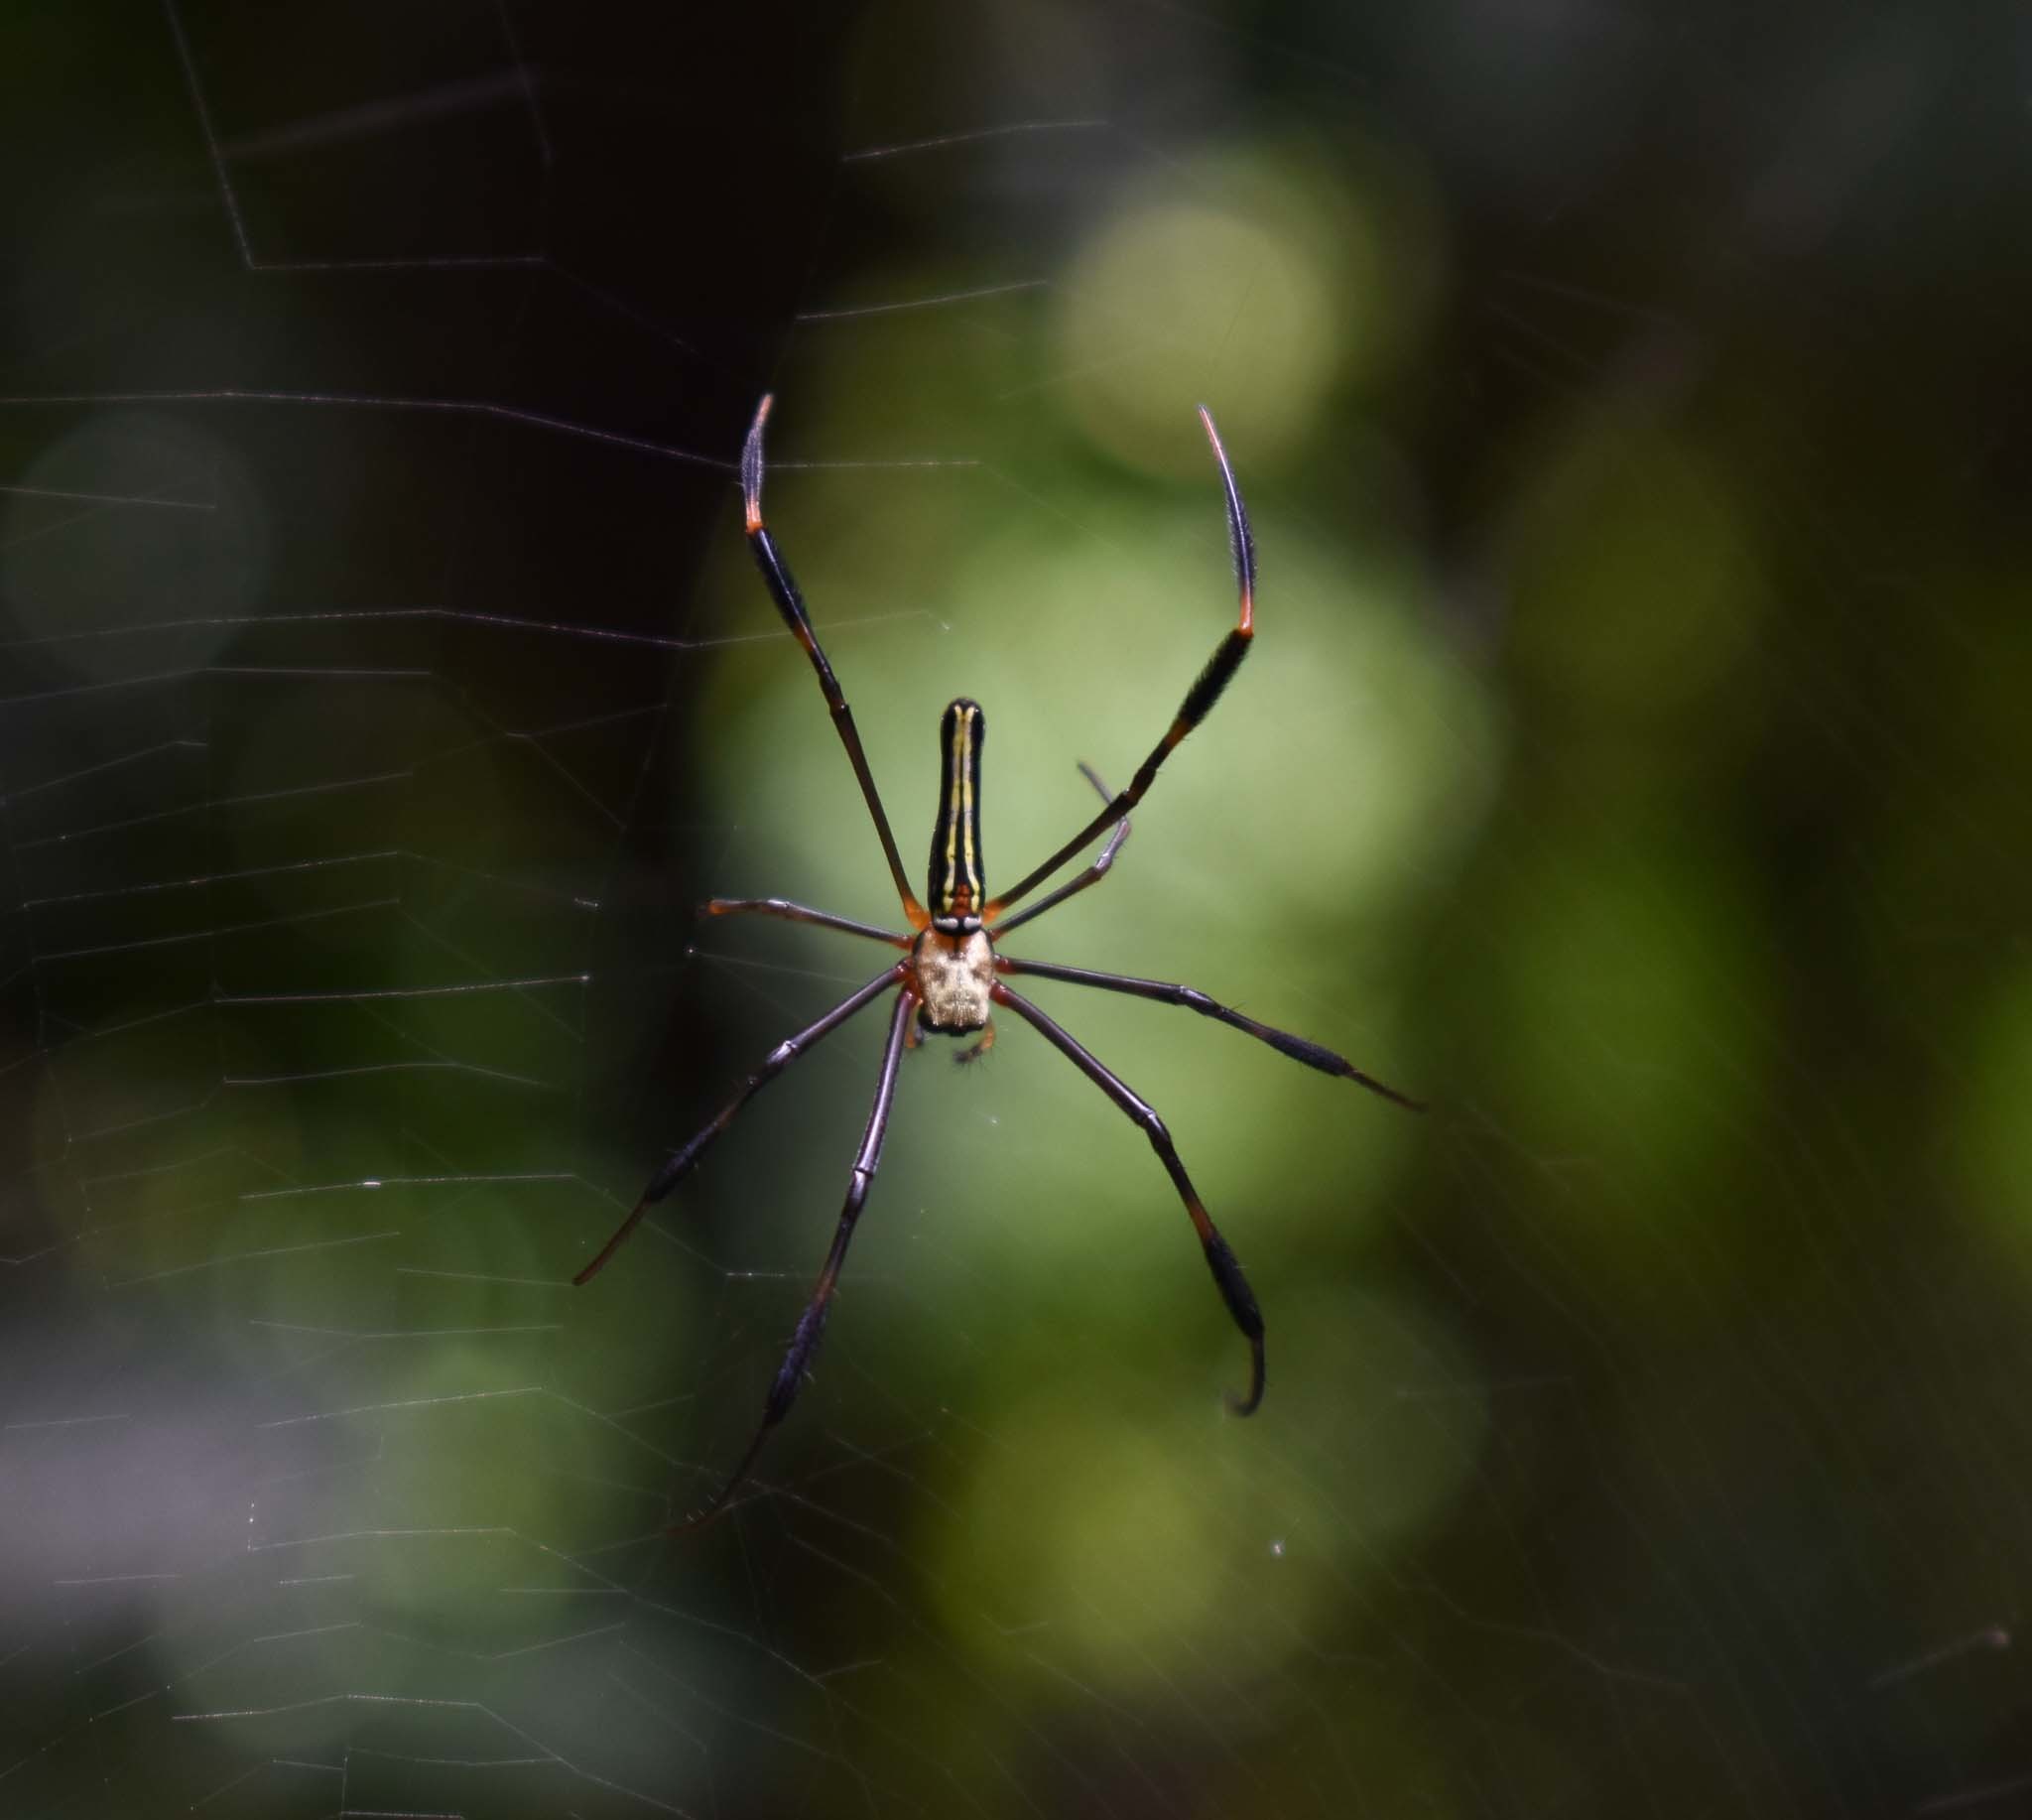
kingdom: Animalia
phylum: Arthropoda
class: Arachnida
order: Araneae
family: Araneidae
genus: Nephila
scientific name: Nephila pilipes
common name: Giant golden orb weaver
